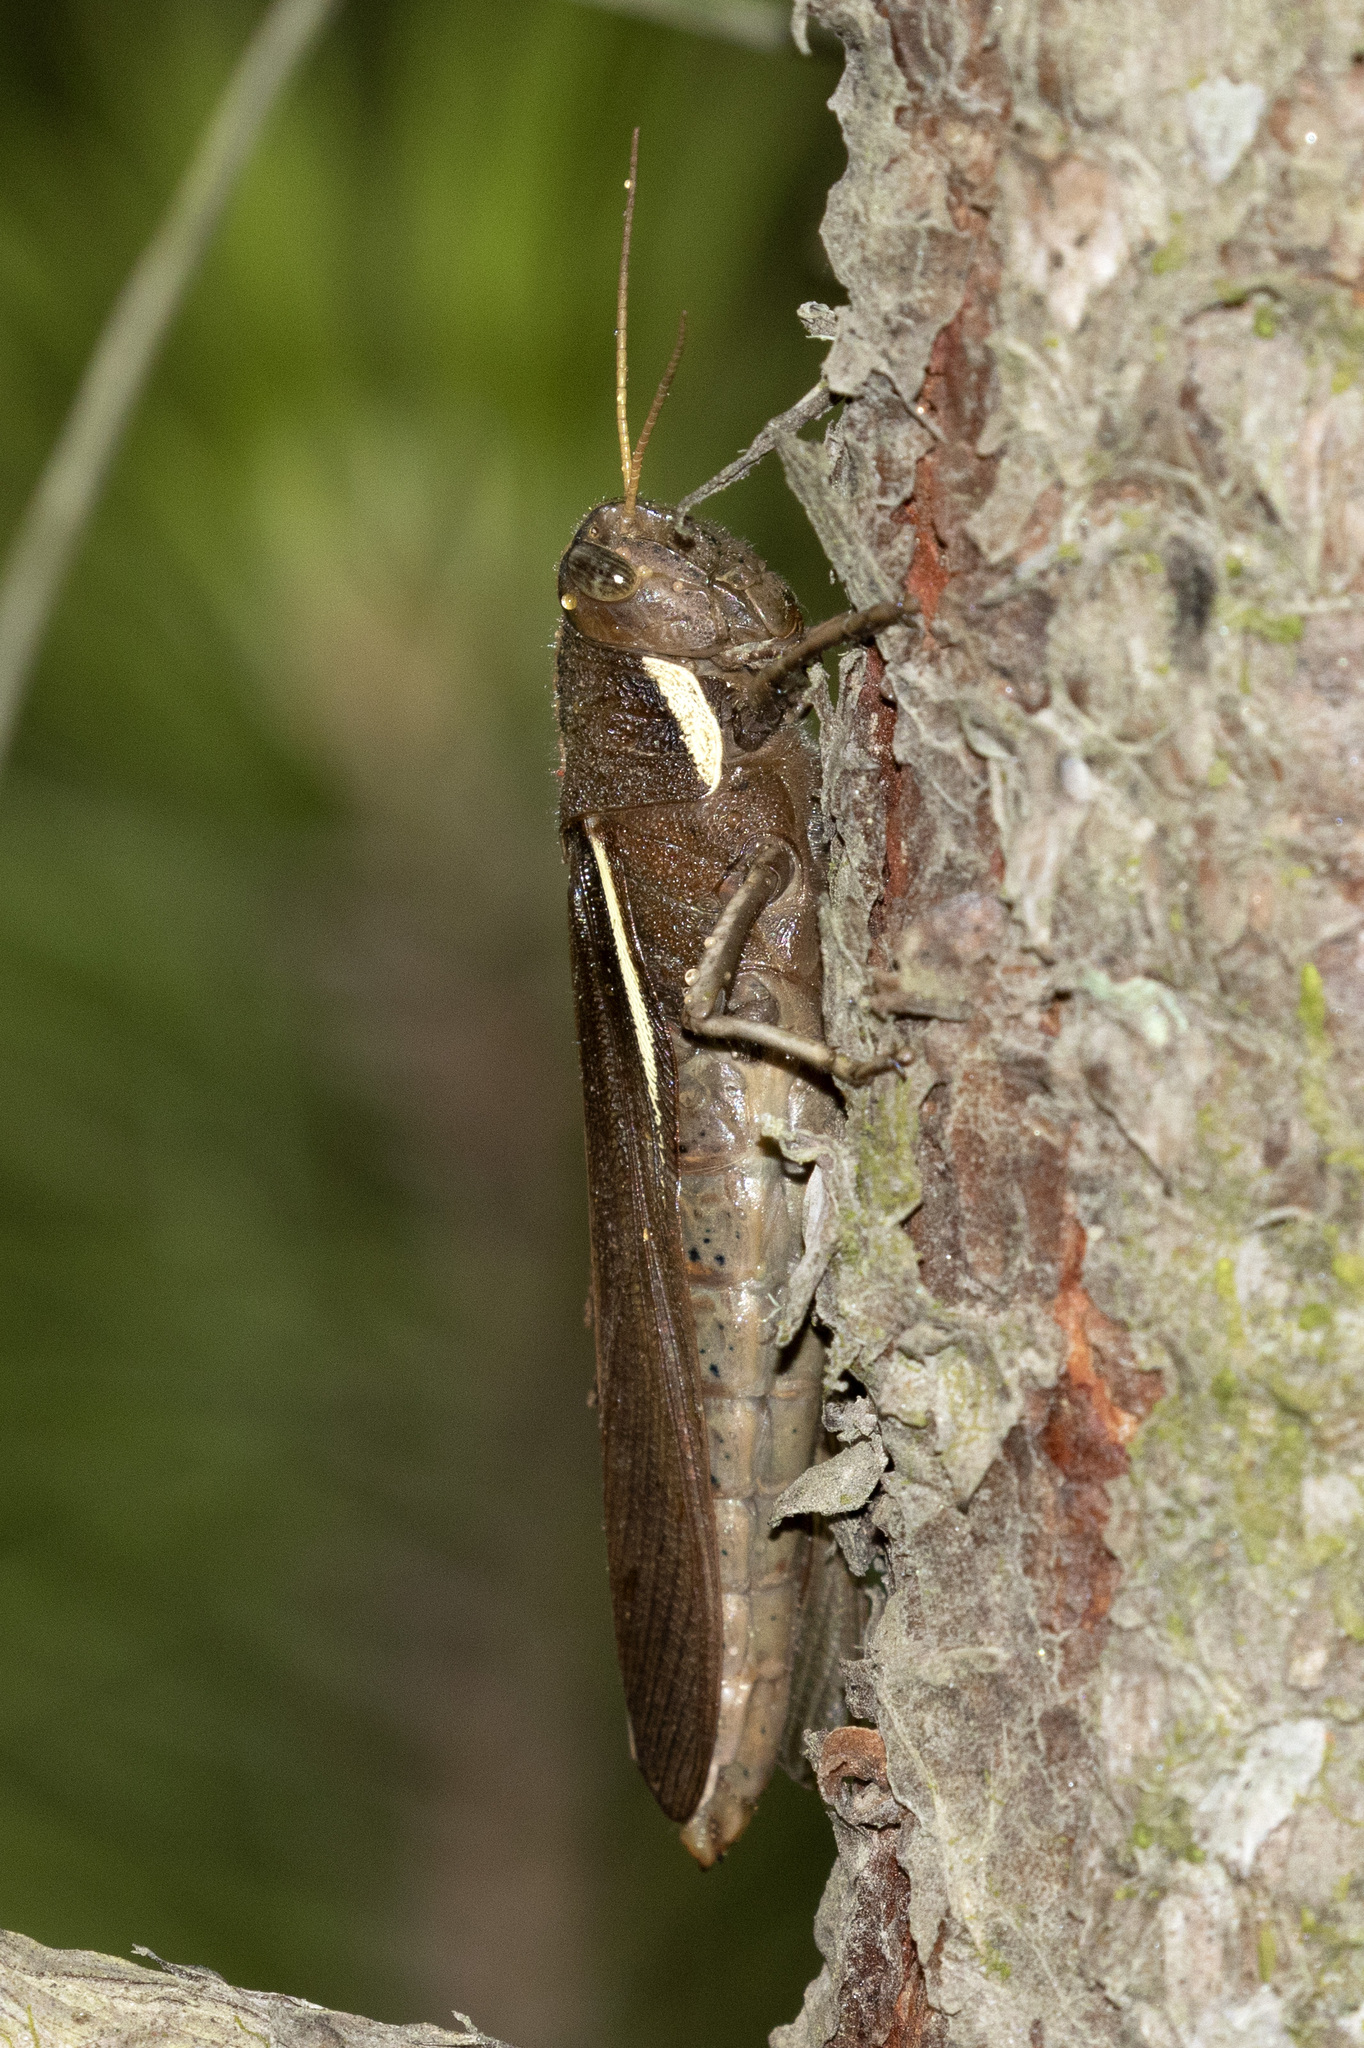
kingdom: Animalia
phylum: Arthropoda
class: Insecta
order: Orthoptera
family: Acrididae
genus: Schistocerca
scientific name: Schistocerca flavofasciata
